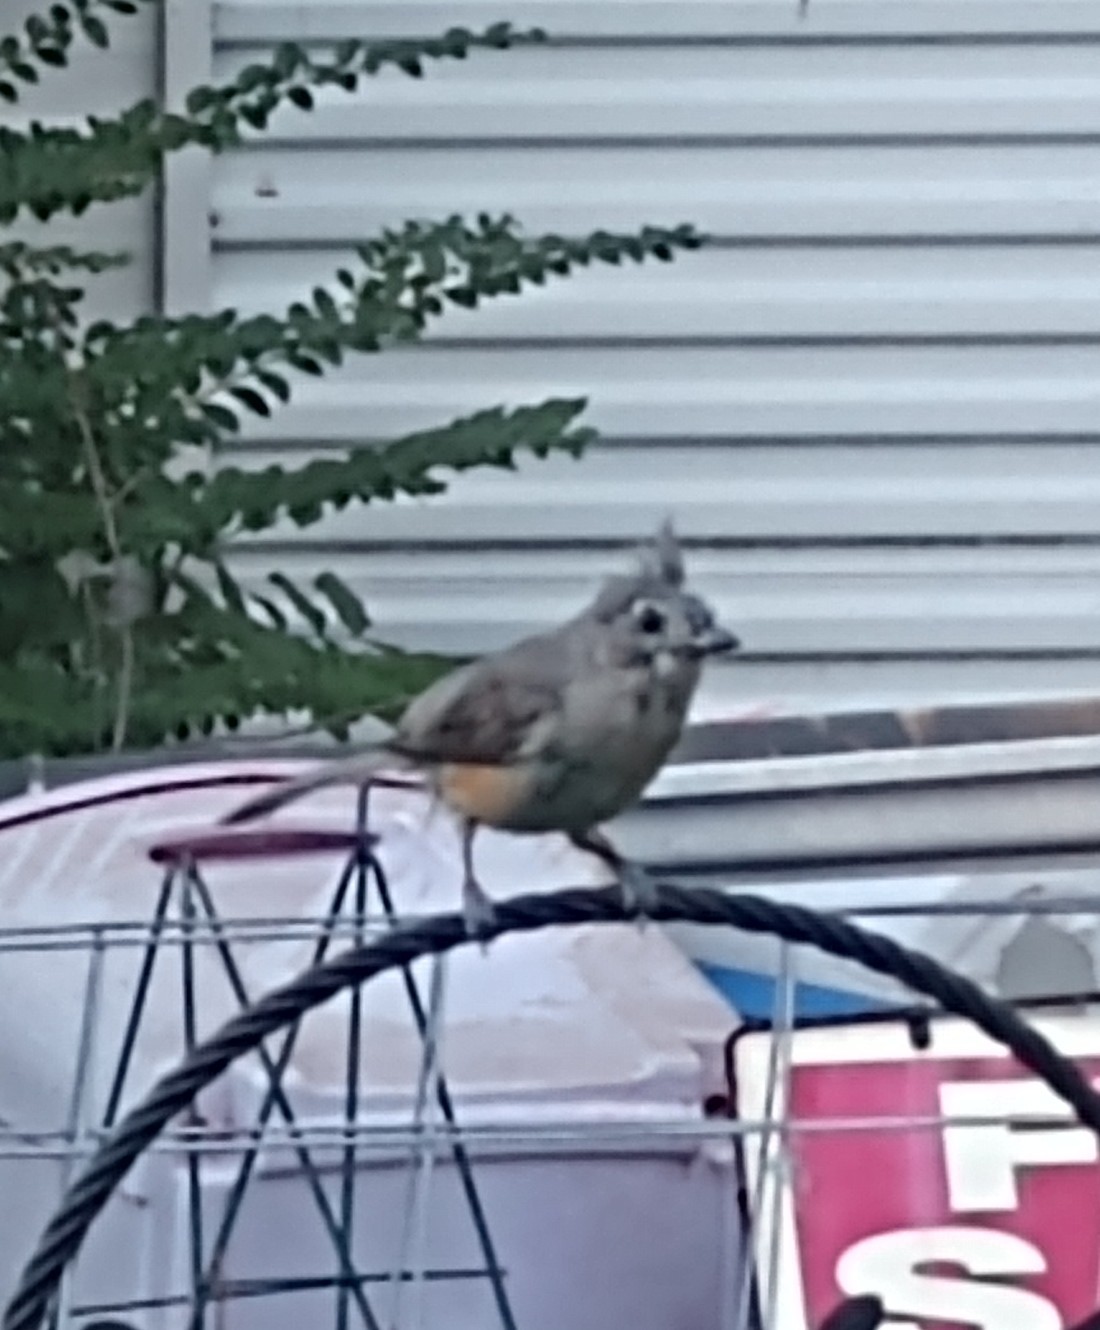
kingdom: Animalia
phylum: Chordata
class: Aves
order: Passeriformes
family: Paridae
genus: Baeolophus
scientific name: Baeolophus bicolor
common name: Tufted titmouse
